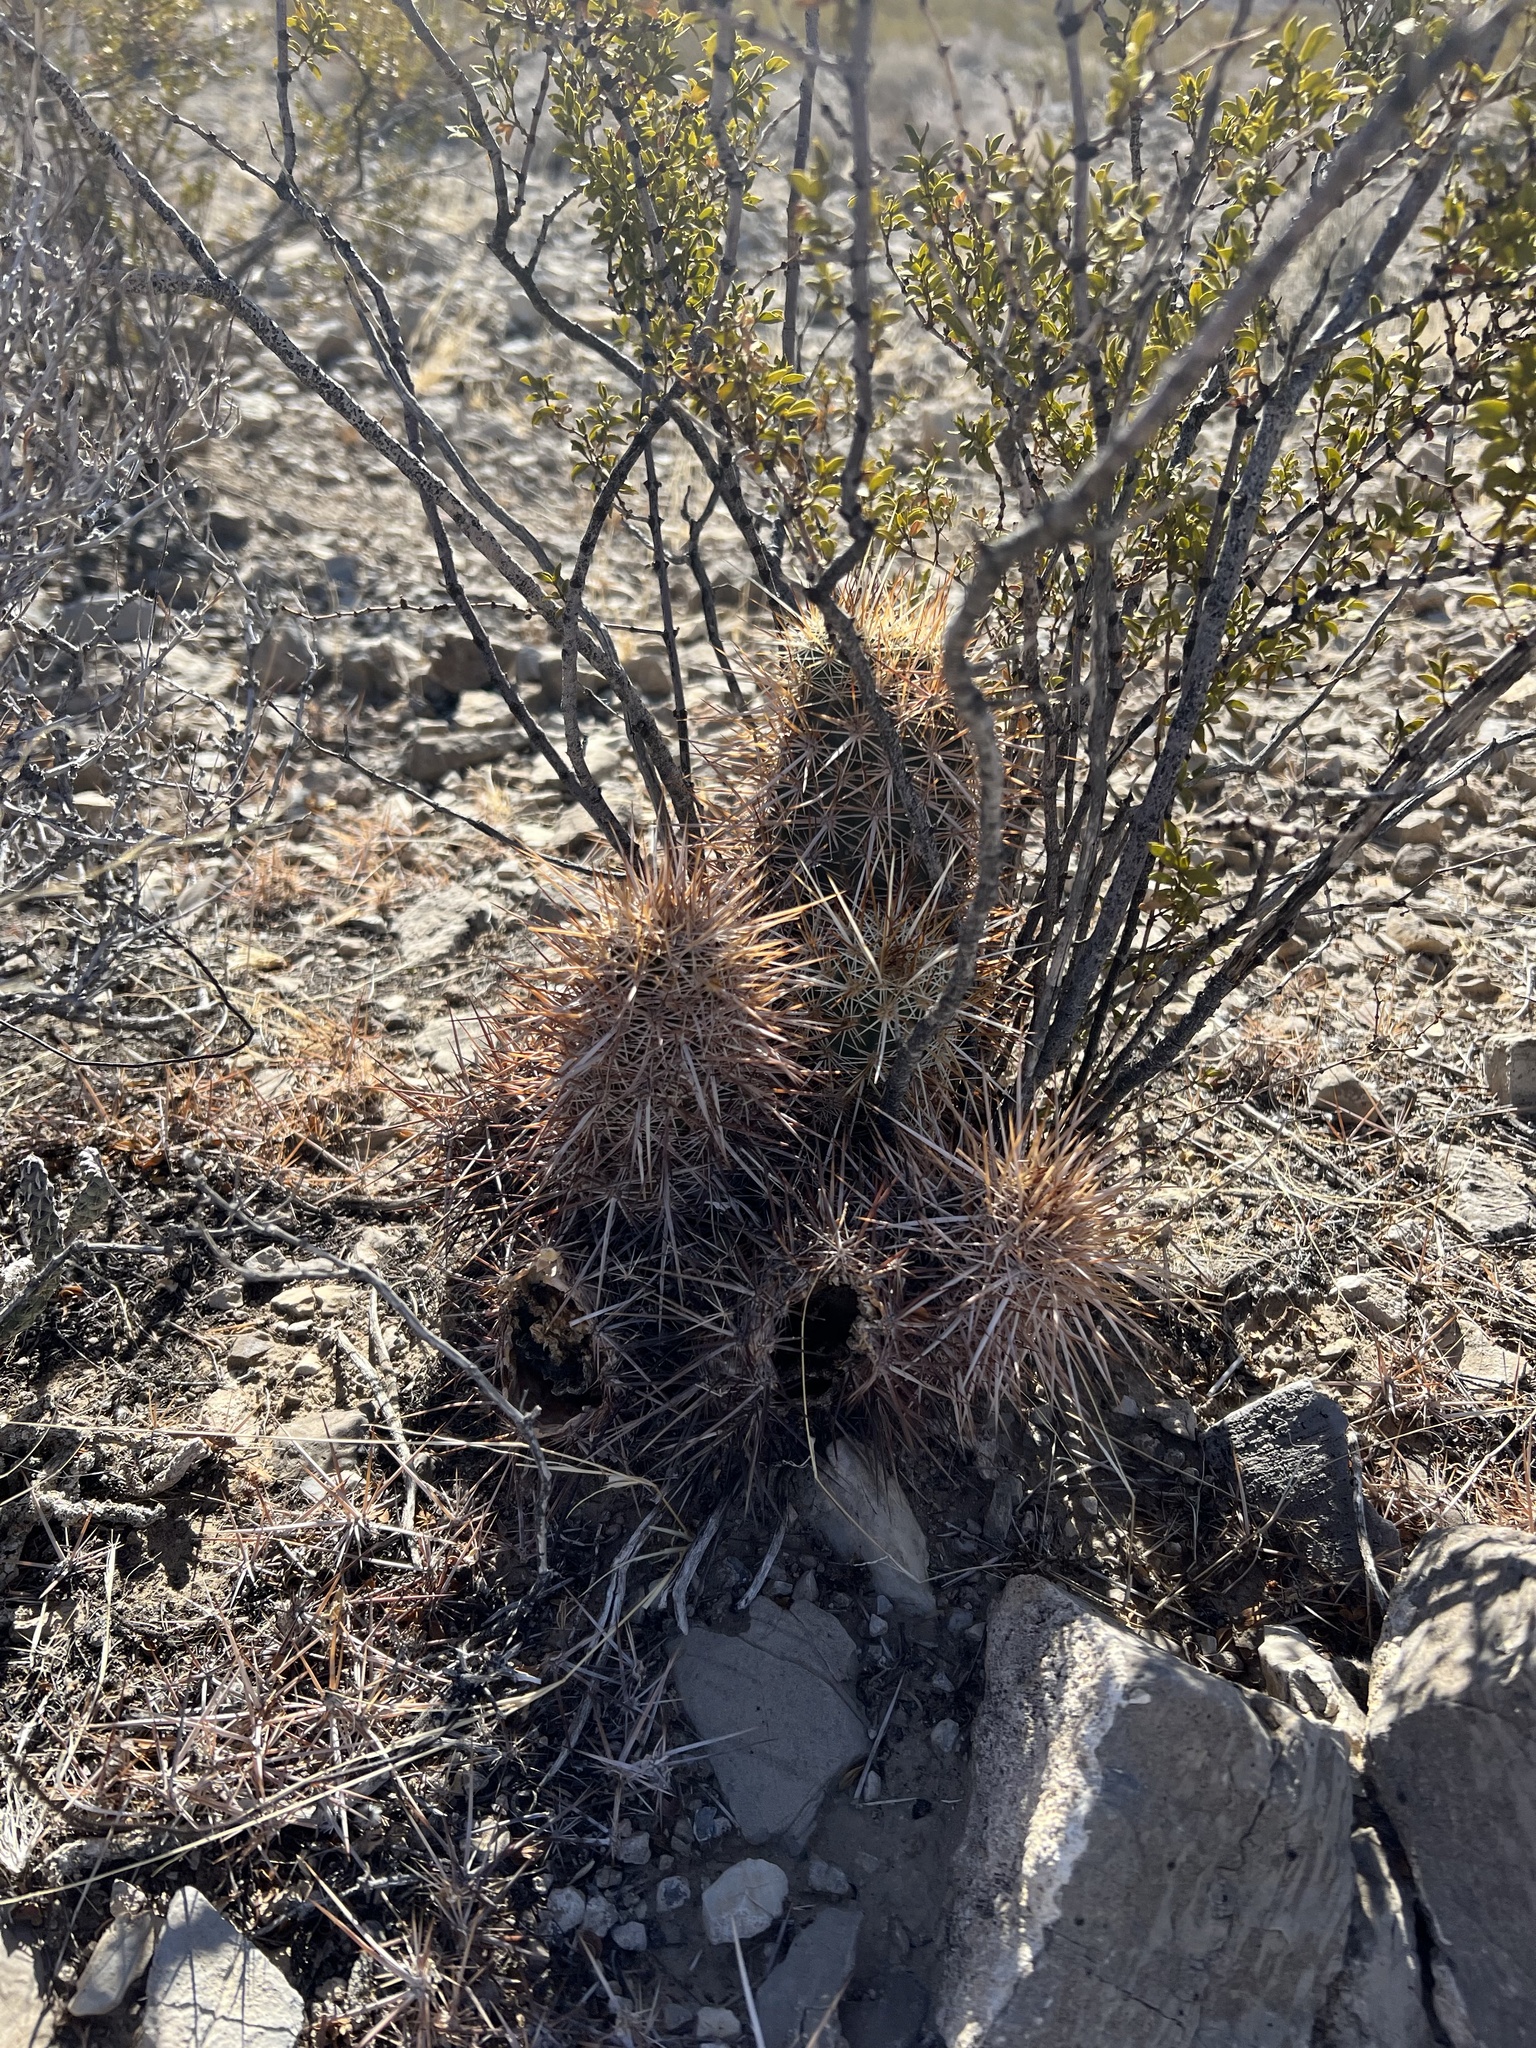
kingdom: Plantae
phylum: Tracheophyta
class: Magnoliopsida
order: Caryophyllales
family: Cactaceae
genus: Echinocereus
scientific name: Echinocereus engelmannii
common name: Engelmann's hedgehog cactus
